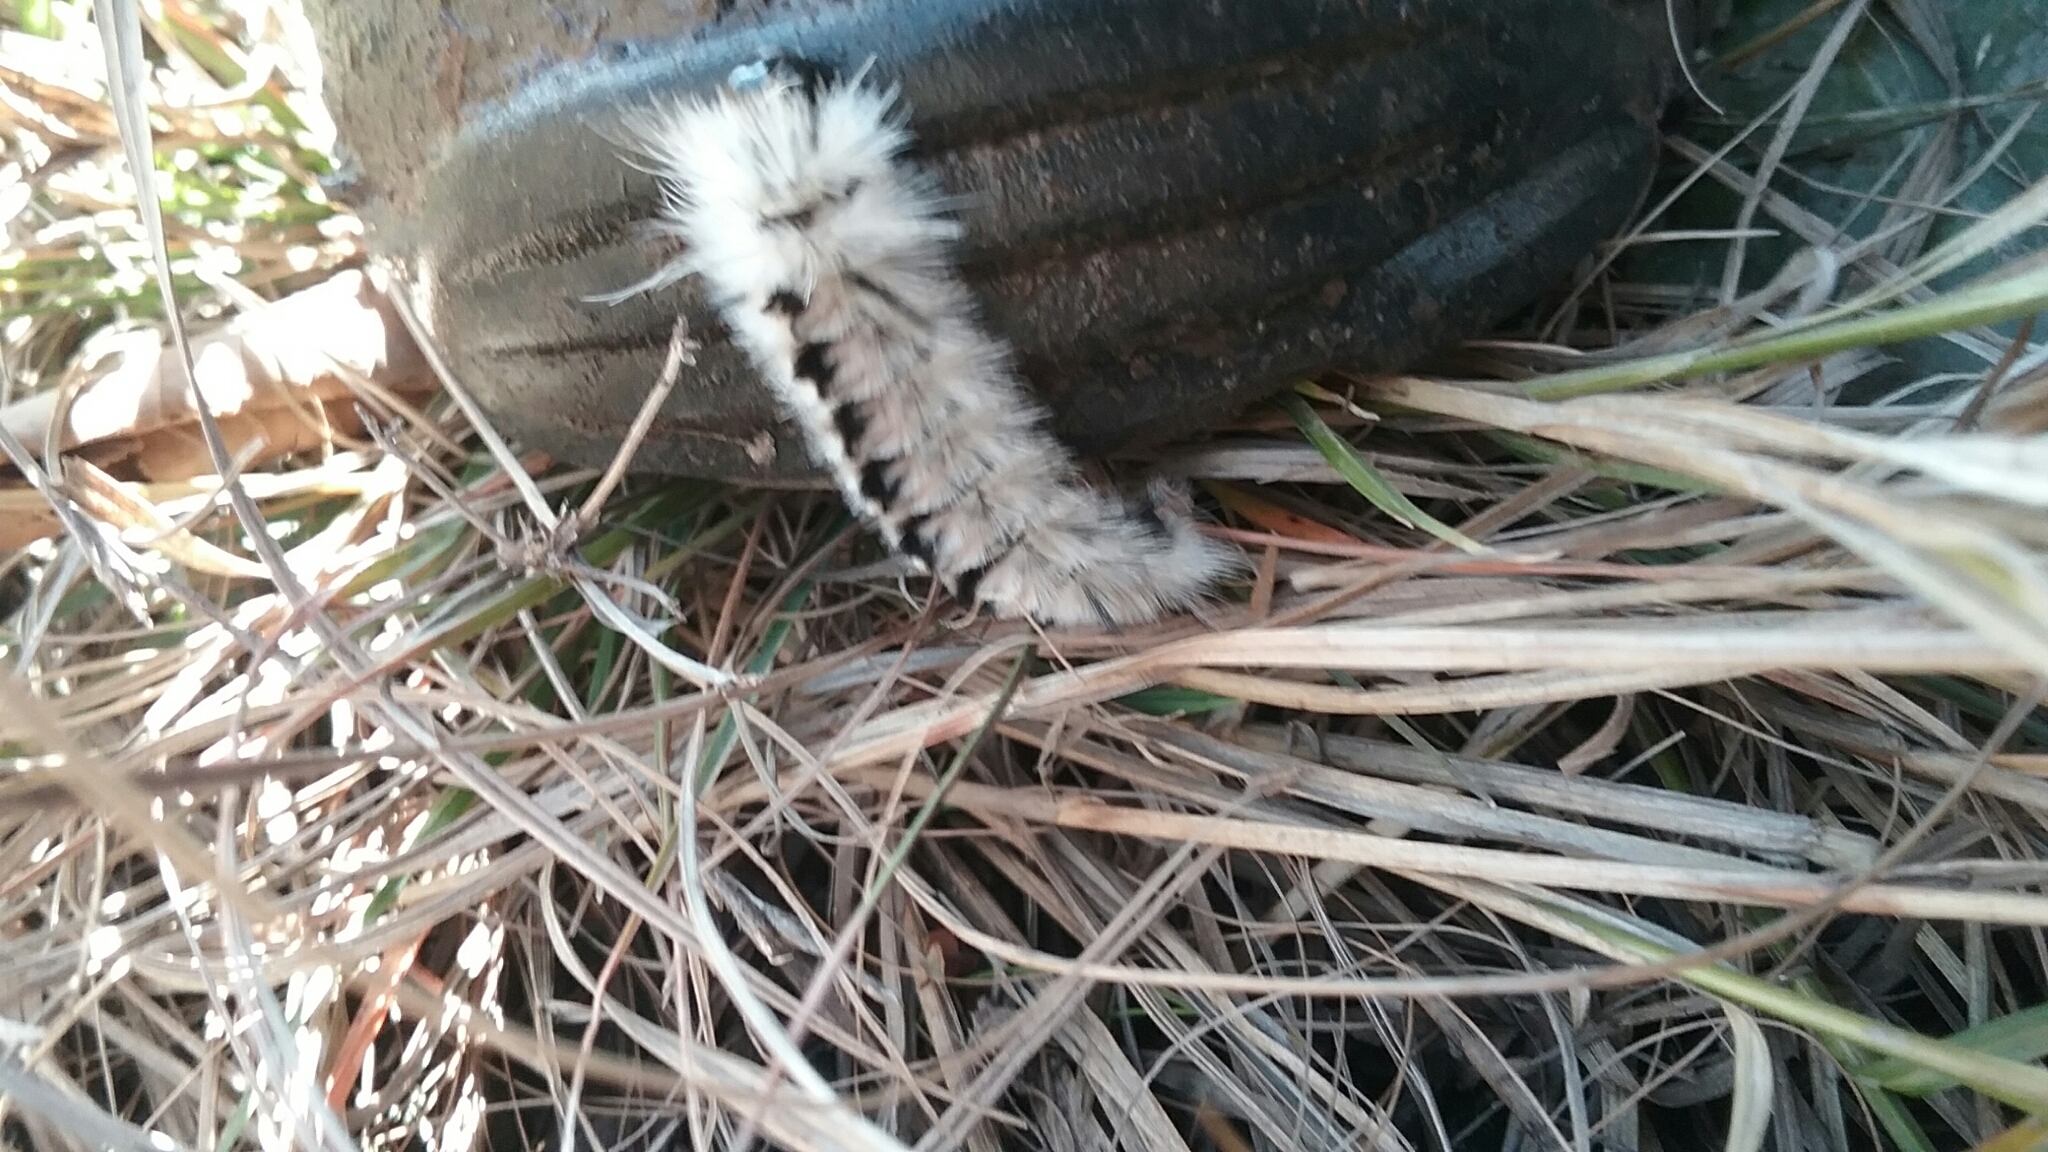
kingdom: Animalia
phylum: Arthropoda
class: Insecta
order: Lepidoptera
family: Erebidae
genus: Lophocampa
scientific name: Lophocampa caryae
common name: Hickory tussock moth
